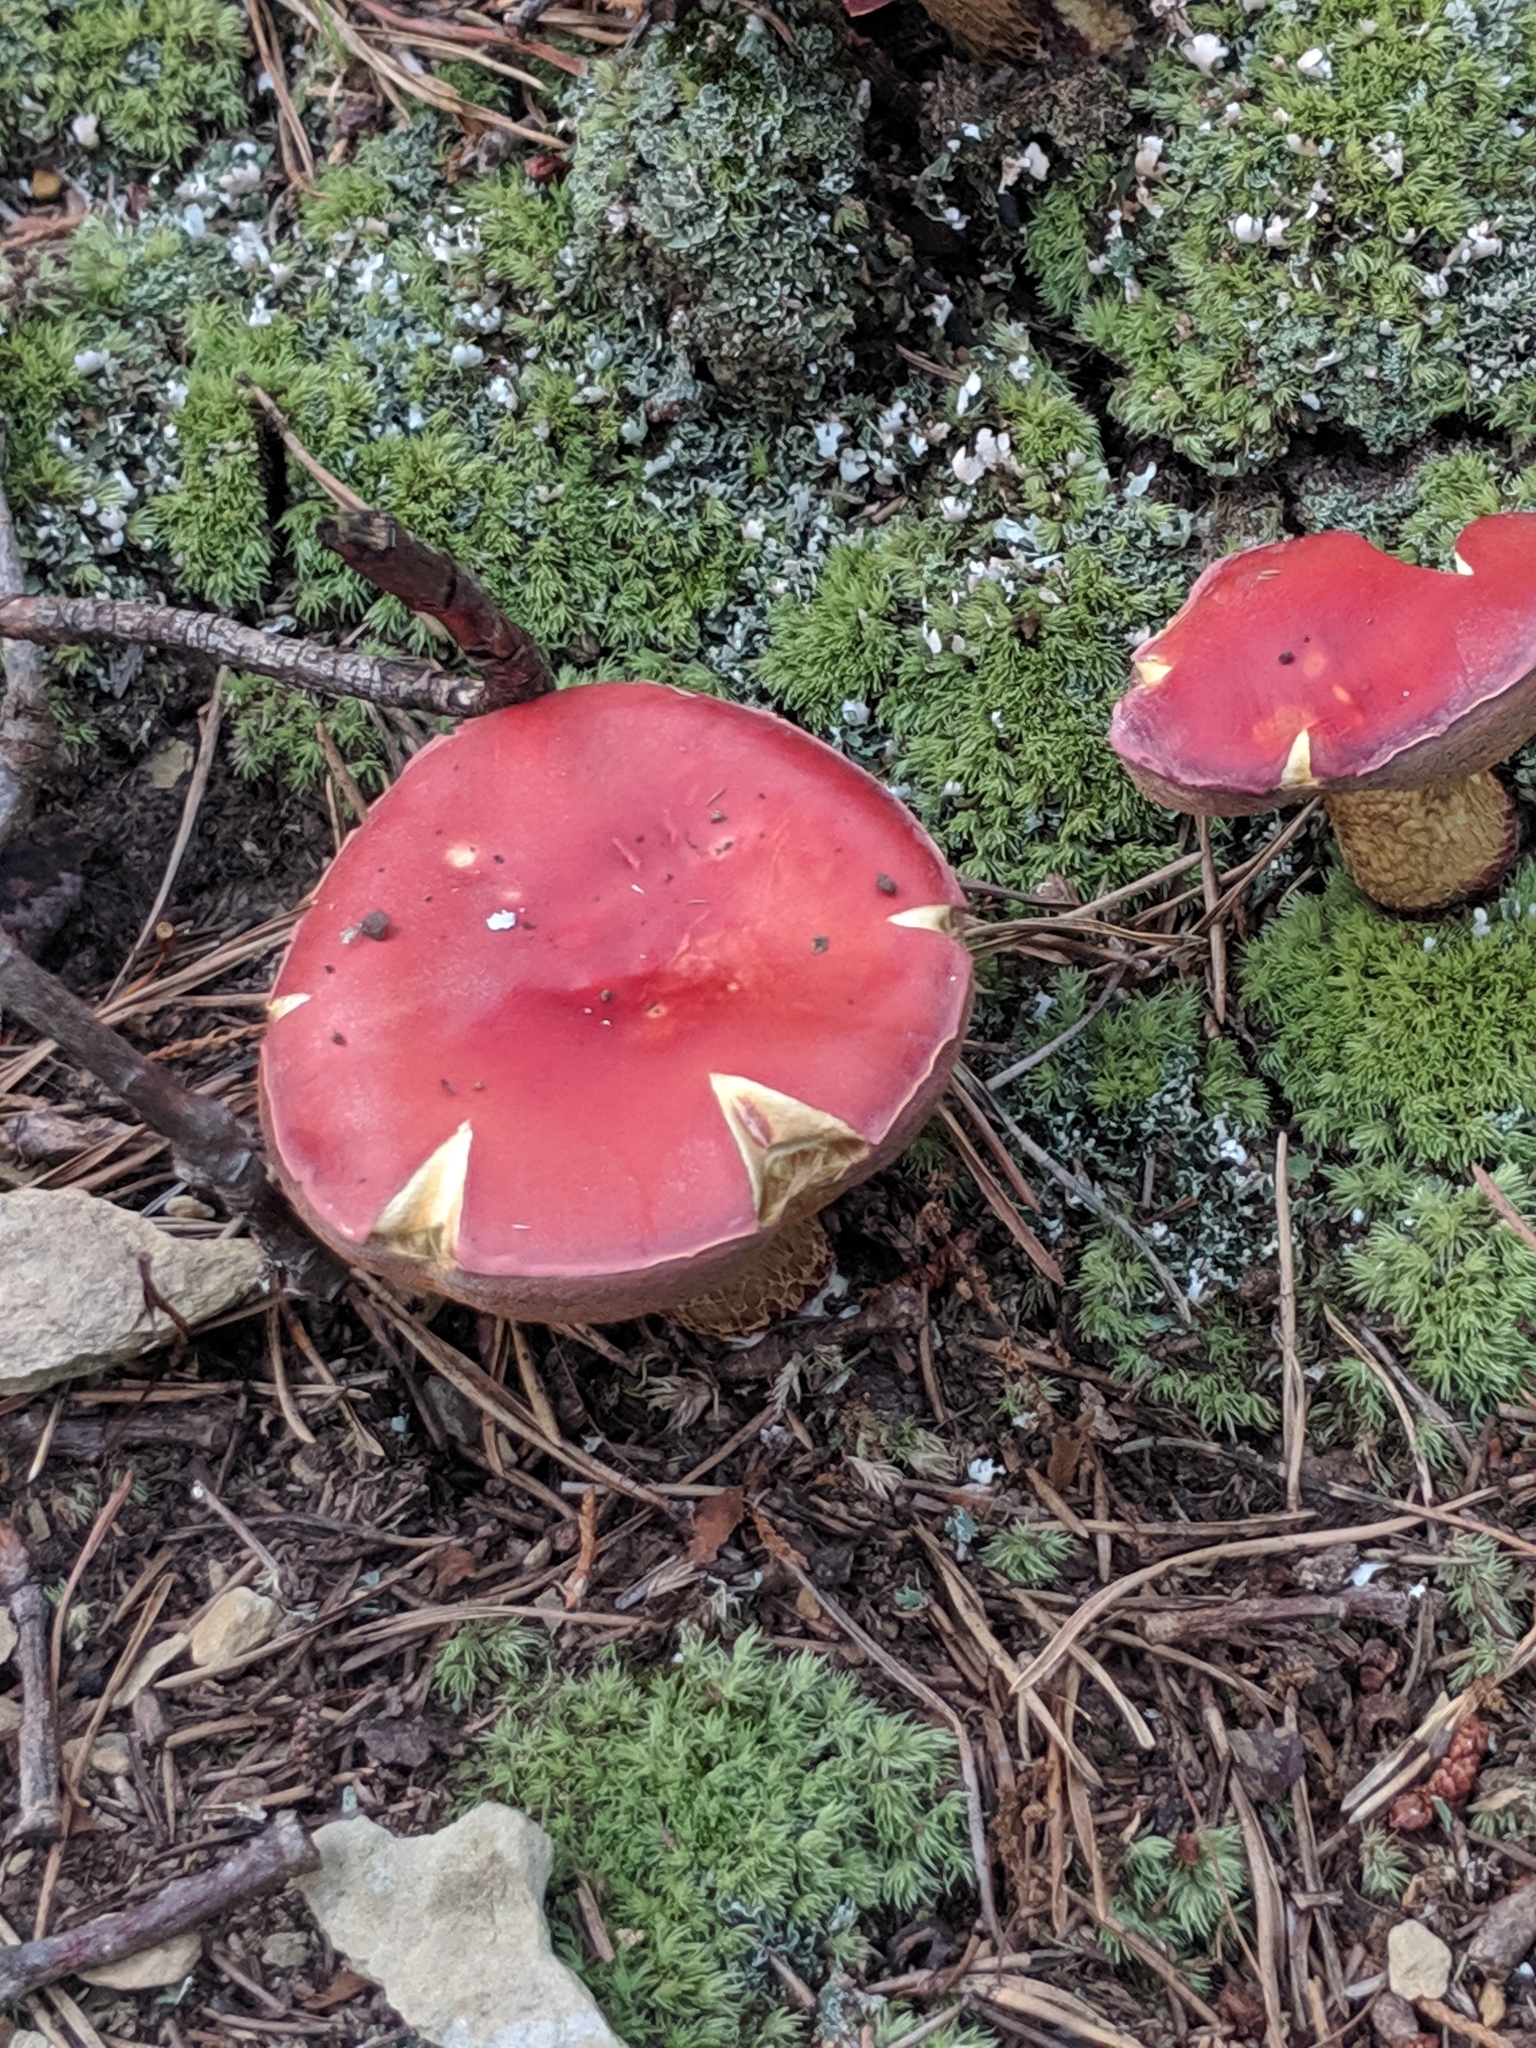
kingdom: Fungi
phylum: Basidiomycota
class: Agaricomycetes
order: Boletales
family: Boletaceae
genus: Butyriboletus
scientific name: Butyriboletus frostii
